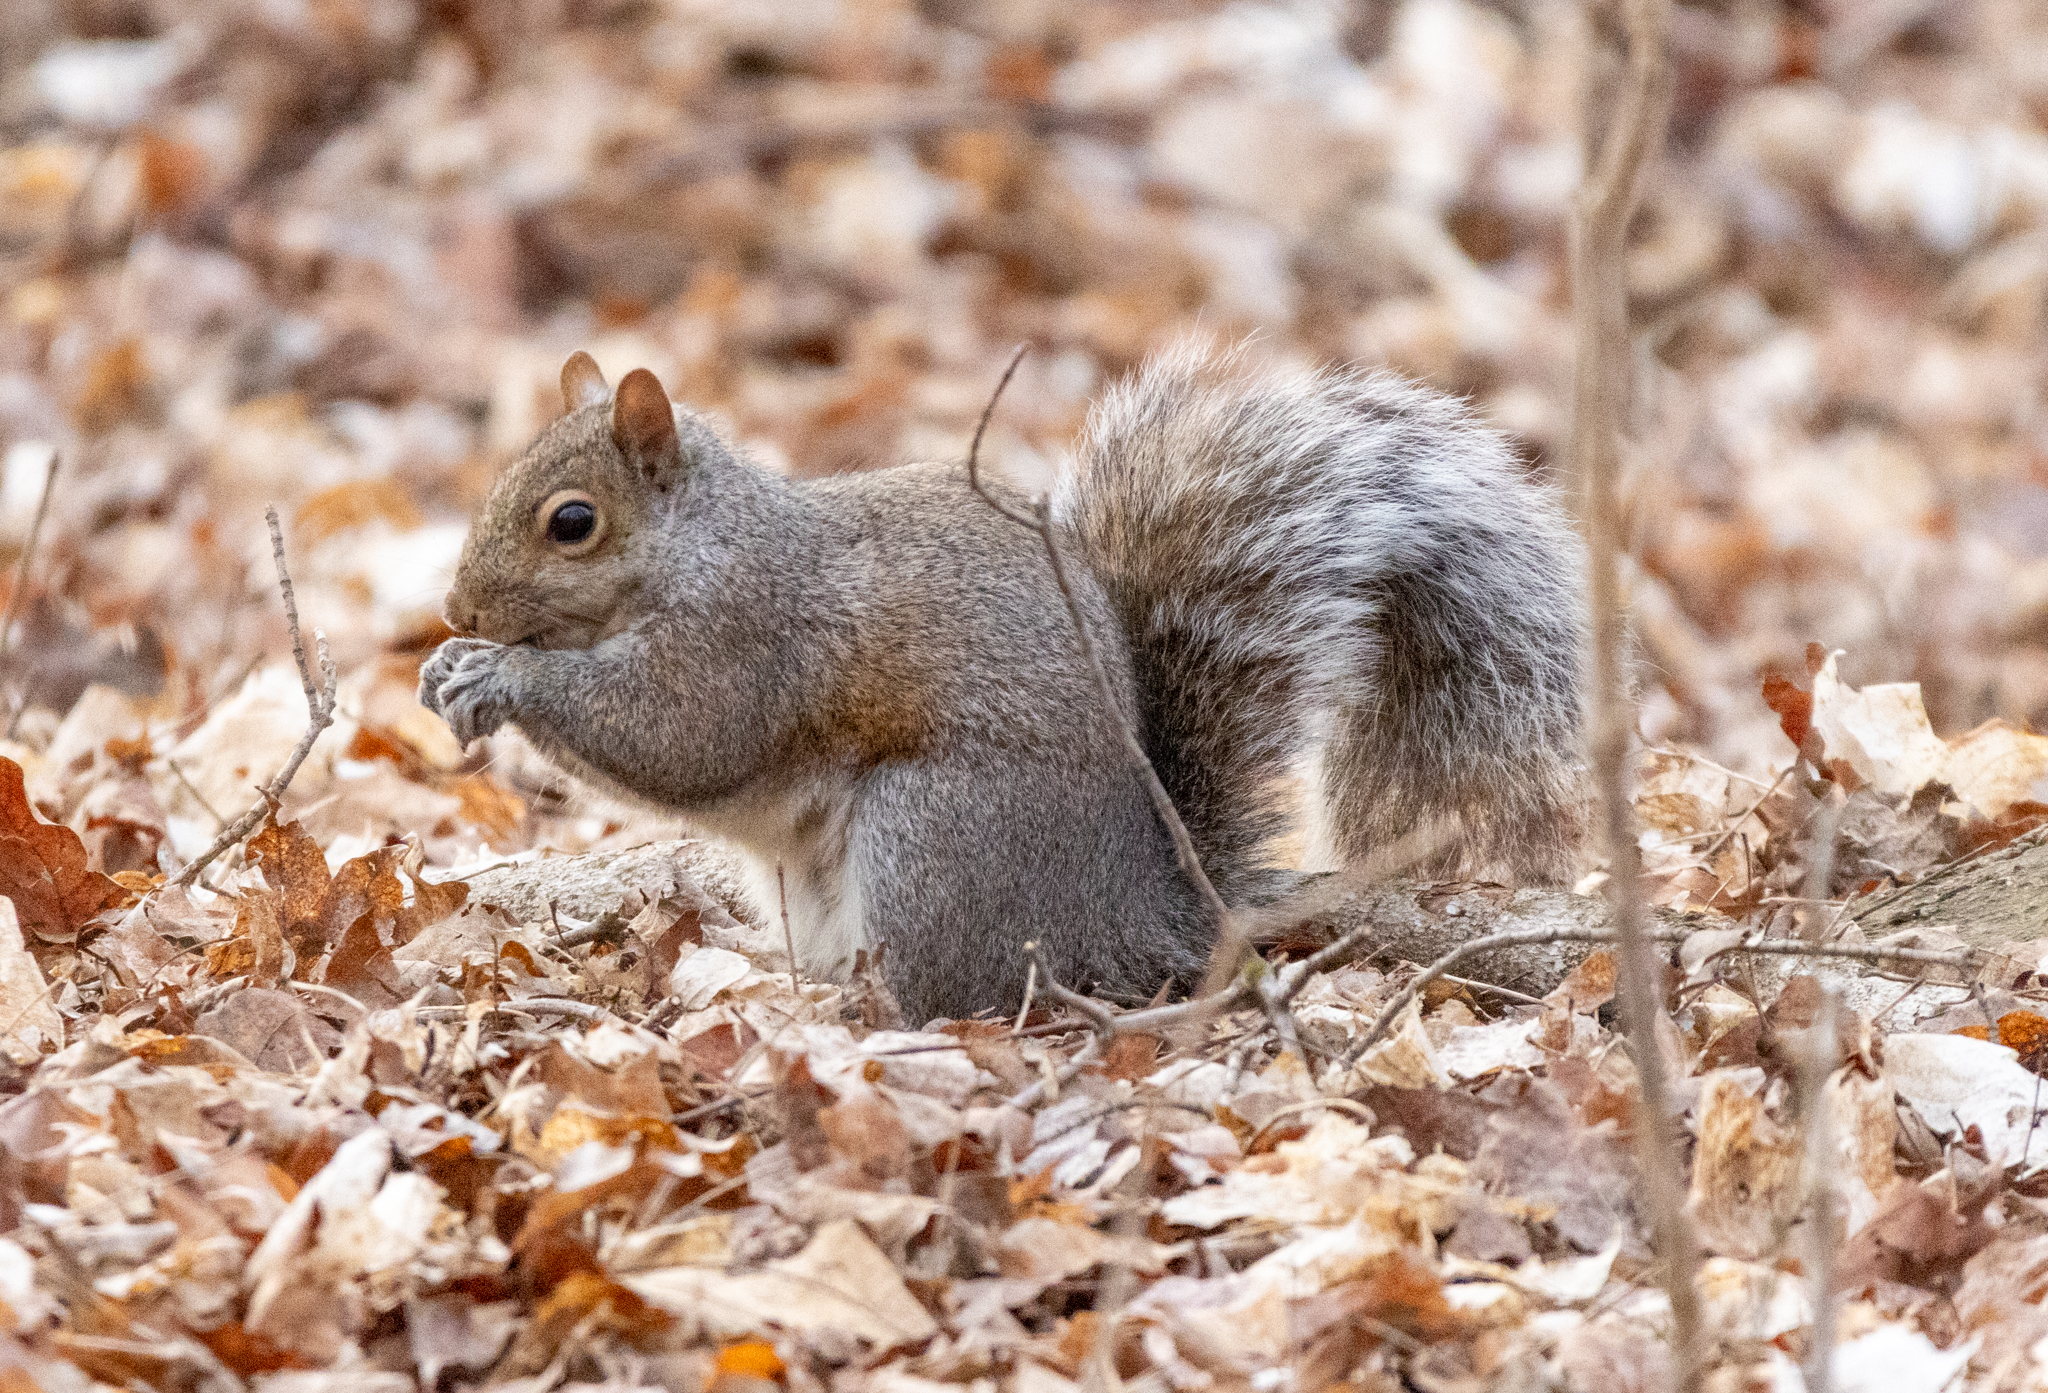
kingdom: Animalia
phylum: Chordata
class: Mammalia
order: Rodentia
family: Sciuridae
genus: Sciurus
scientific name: Sciurus carolinensis
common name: Eastern gray squirrel
